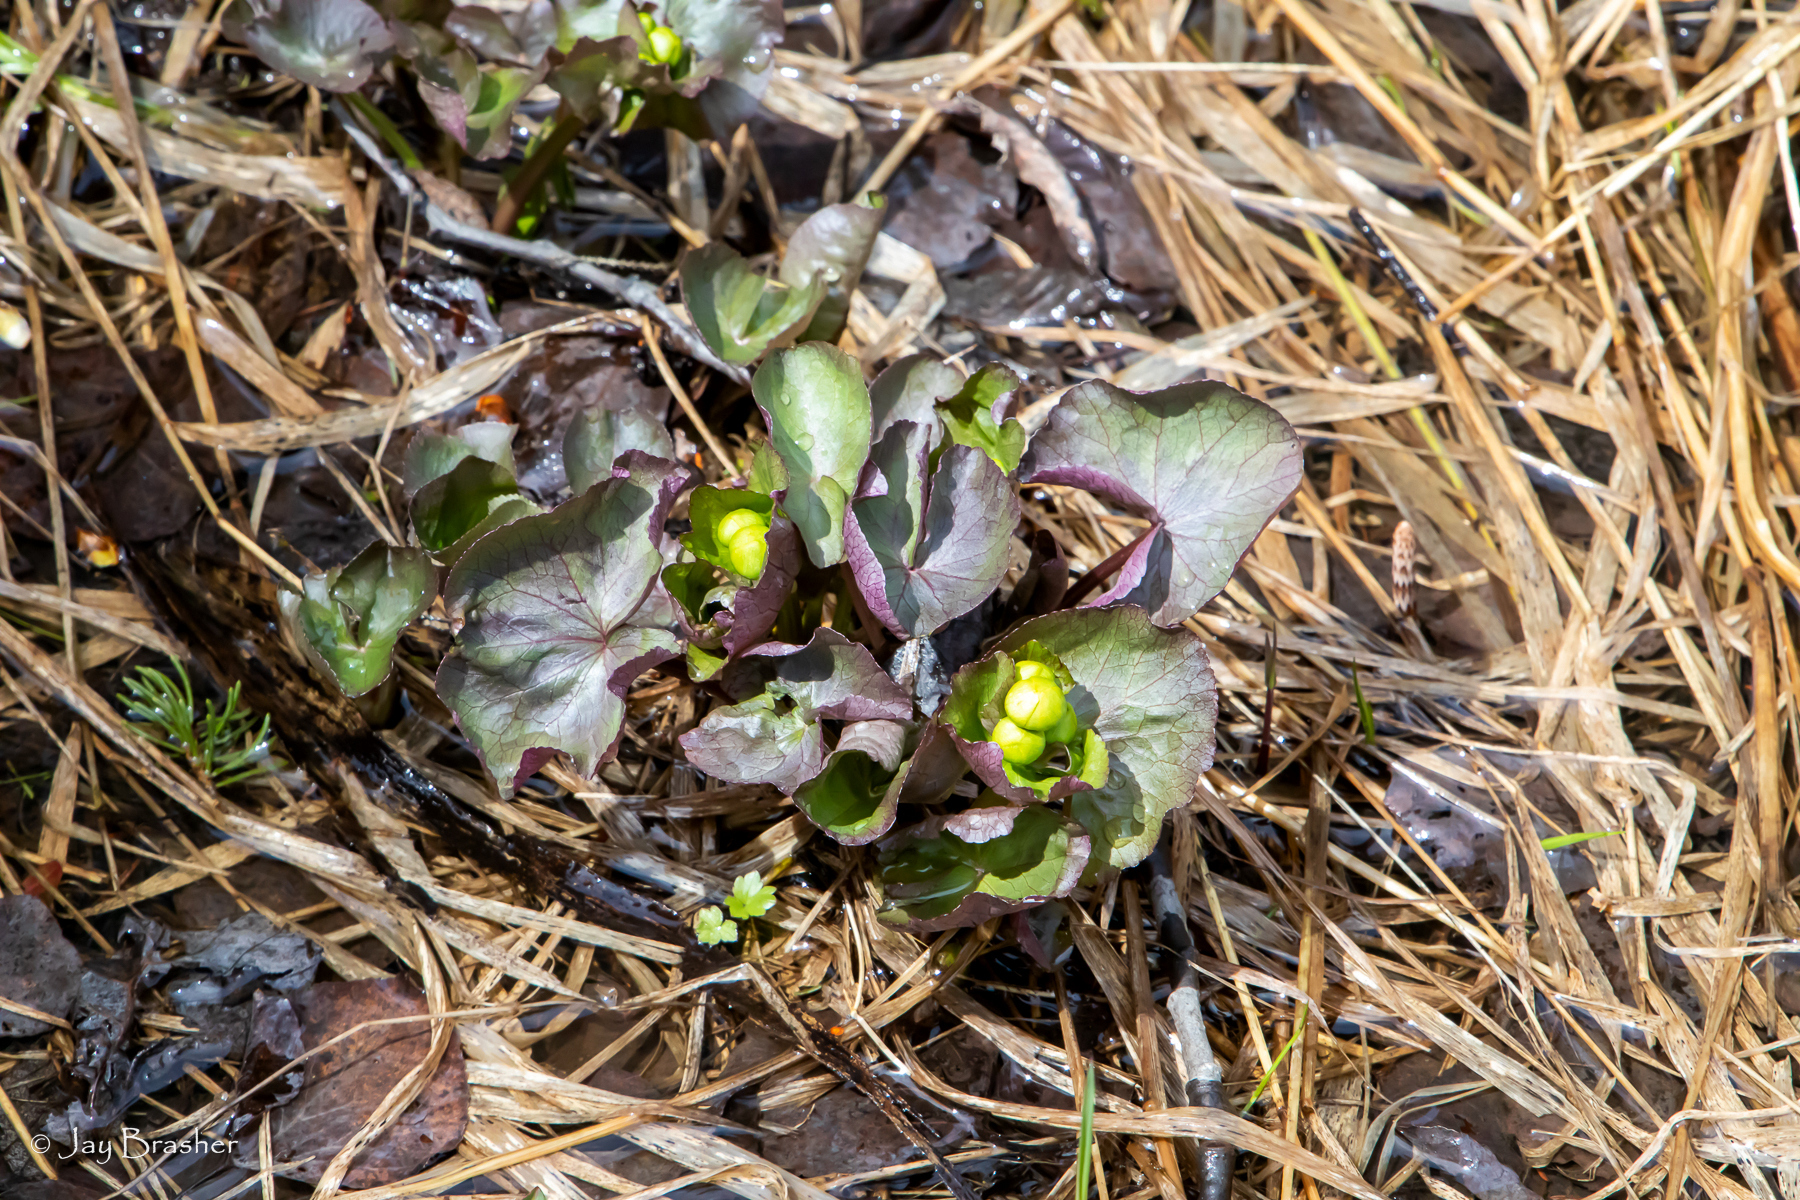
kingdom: Plantae
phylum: Tracheophyta
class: Magnoliopsida
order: Ranunculales
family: Ranunculaceae
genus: Caltha
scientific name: Caltha palustris
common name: Marsh marigold
